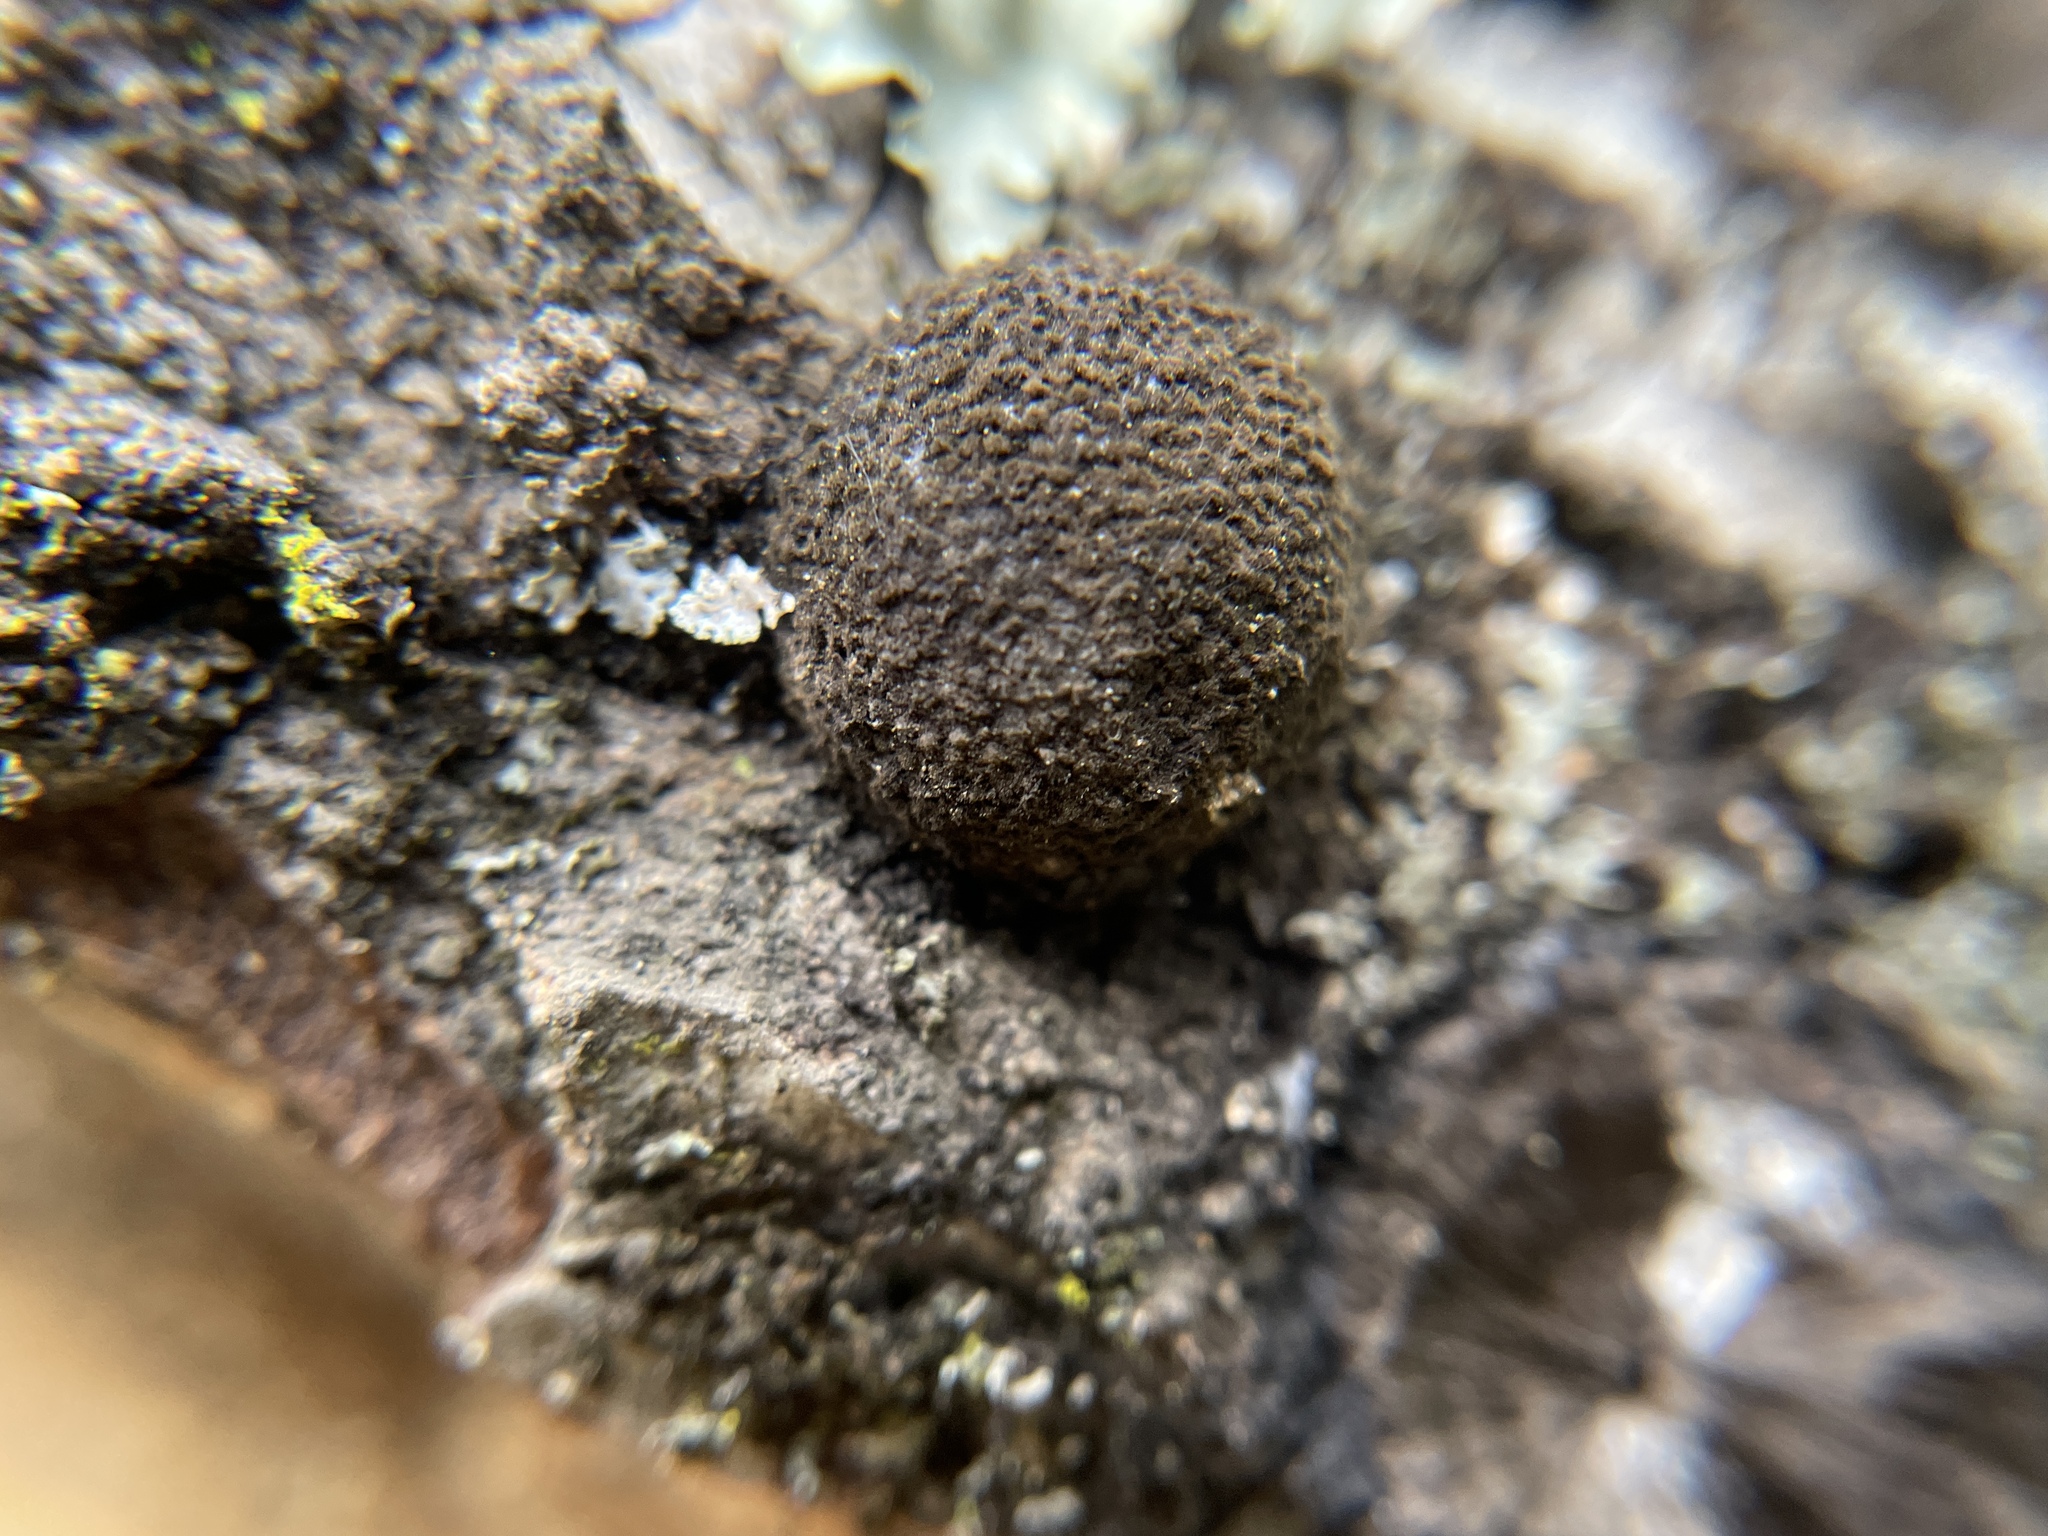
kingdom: Fungi
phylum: Ascomycota
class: Sordariomycetes
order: Xylariales
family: Hypoxylaceae
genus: Annulohypoxylon
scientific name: Annulohypoxylon thouarsianum
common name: Cramp balls
